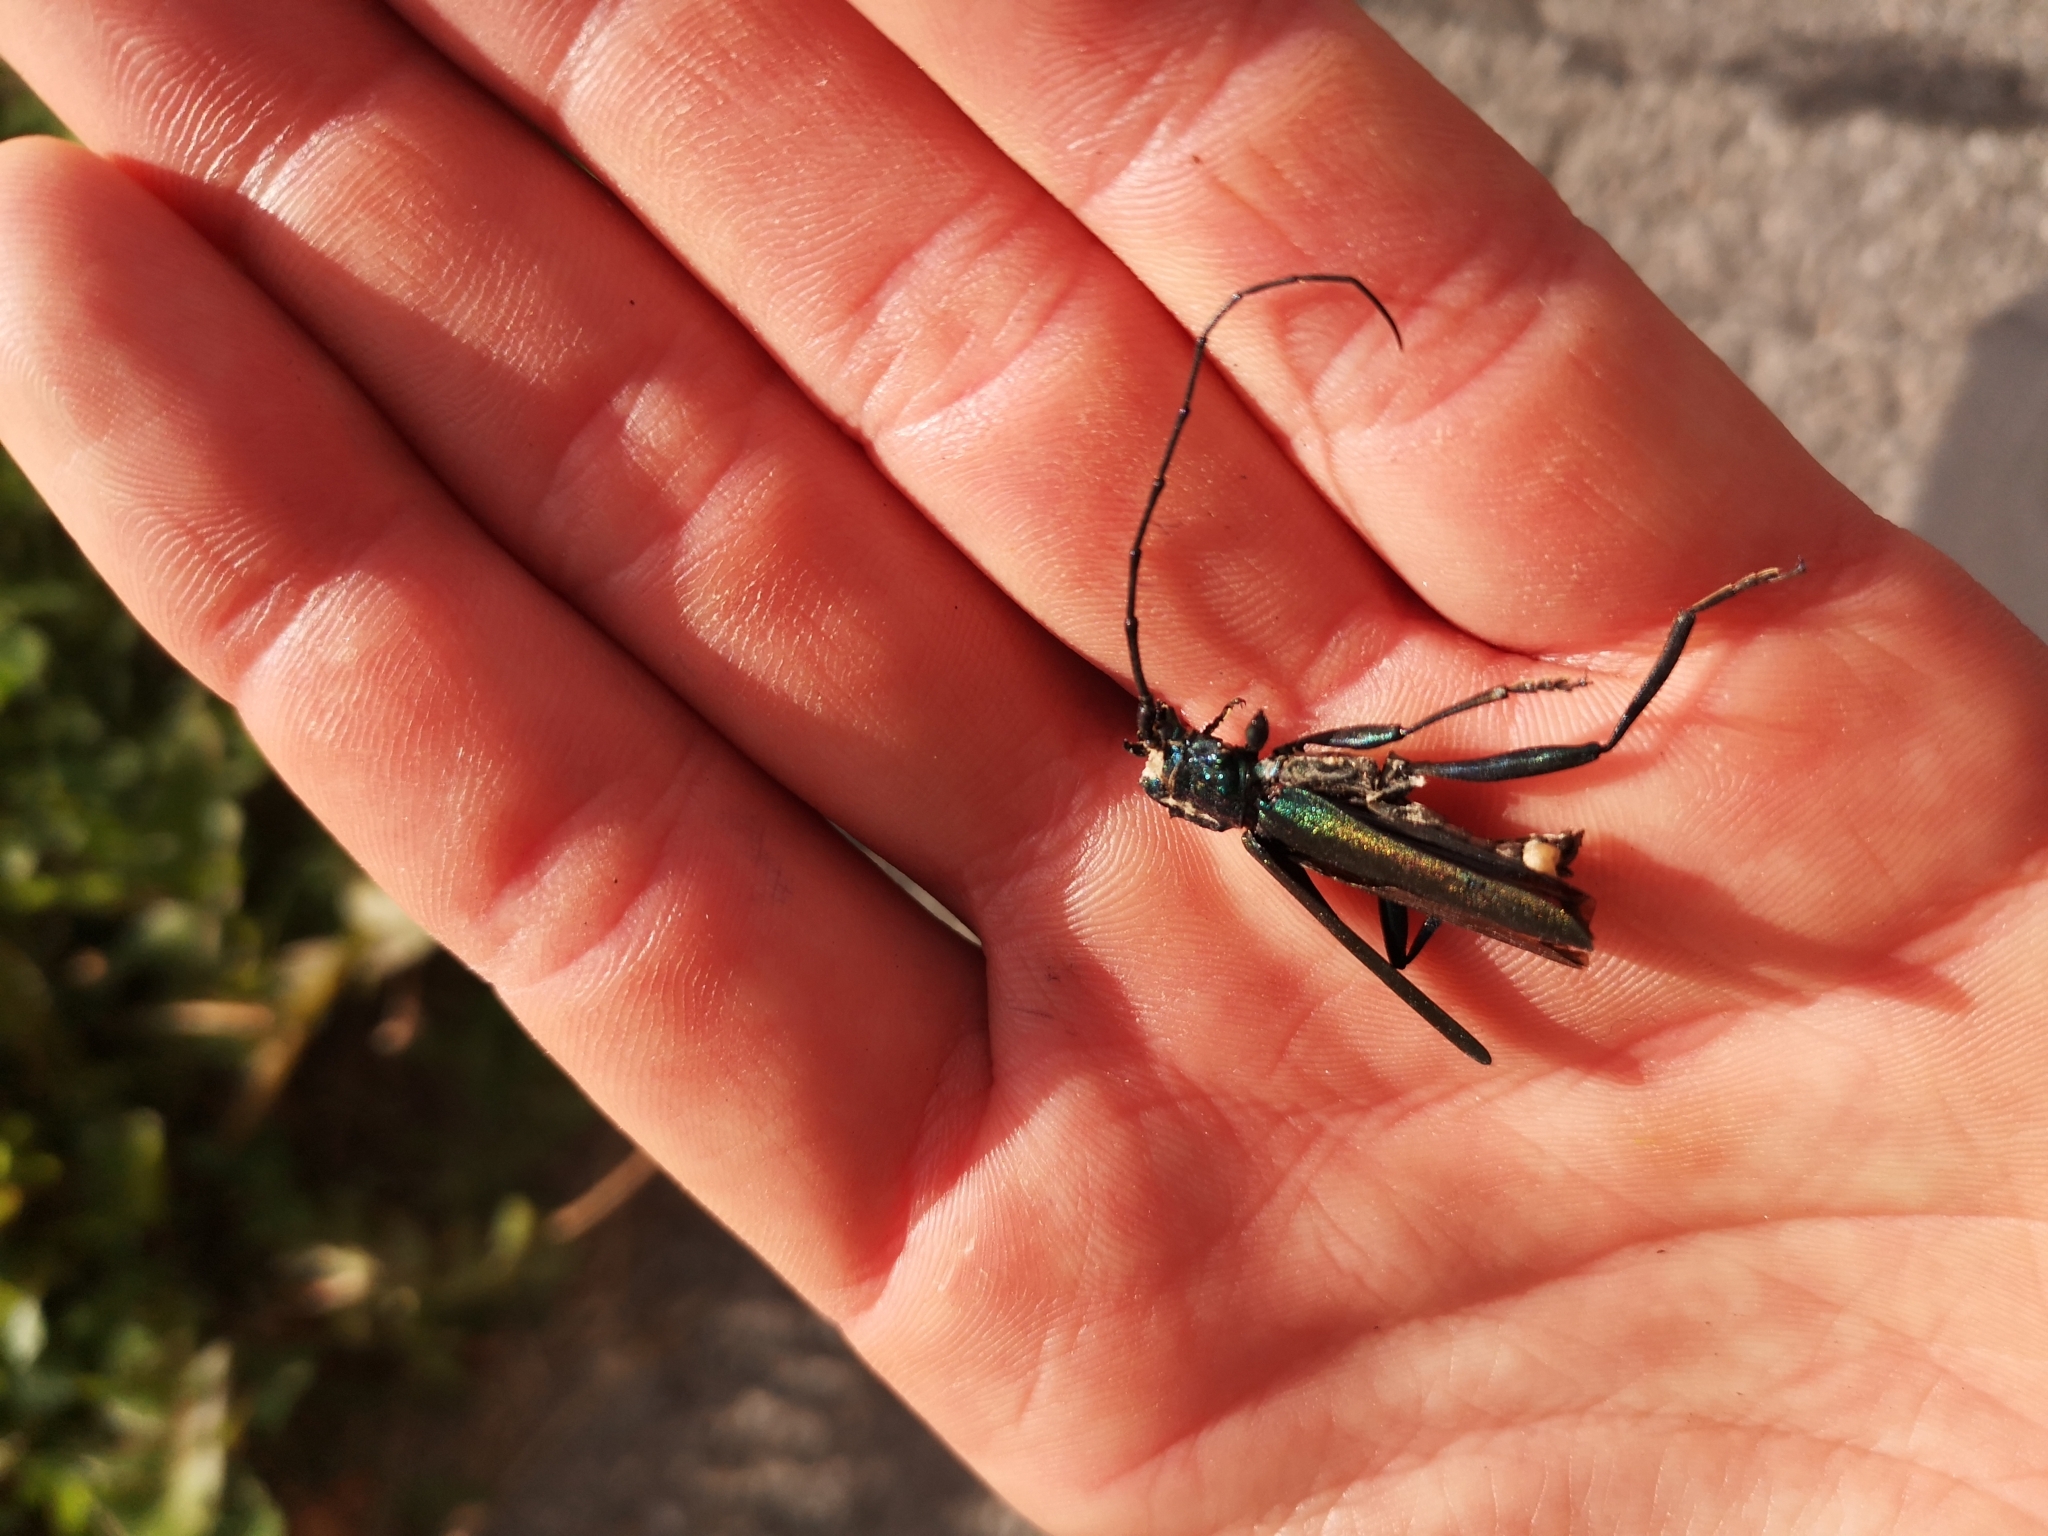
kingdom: Animalia
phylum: Arthropoda
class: Insecta
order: Coleoptera
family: Cerambycidae
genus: Aromia
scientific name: Aromia moschata
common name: Musk beetle
